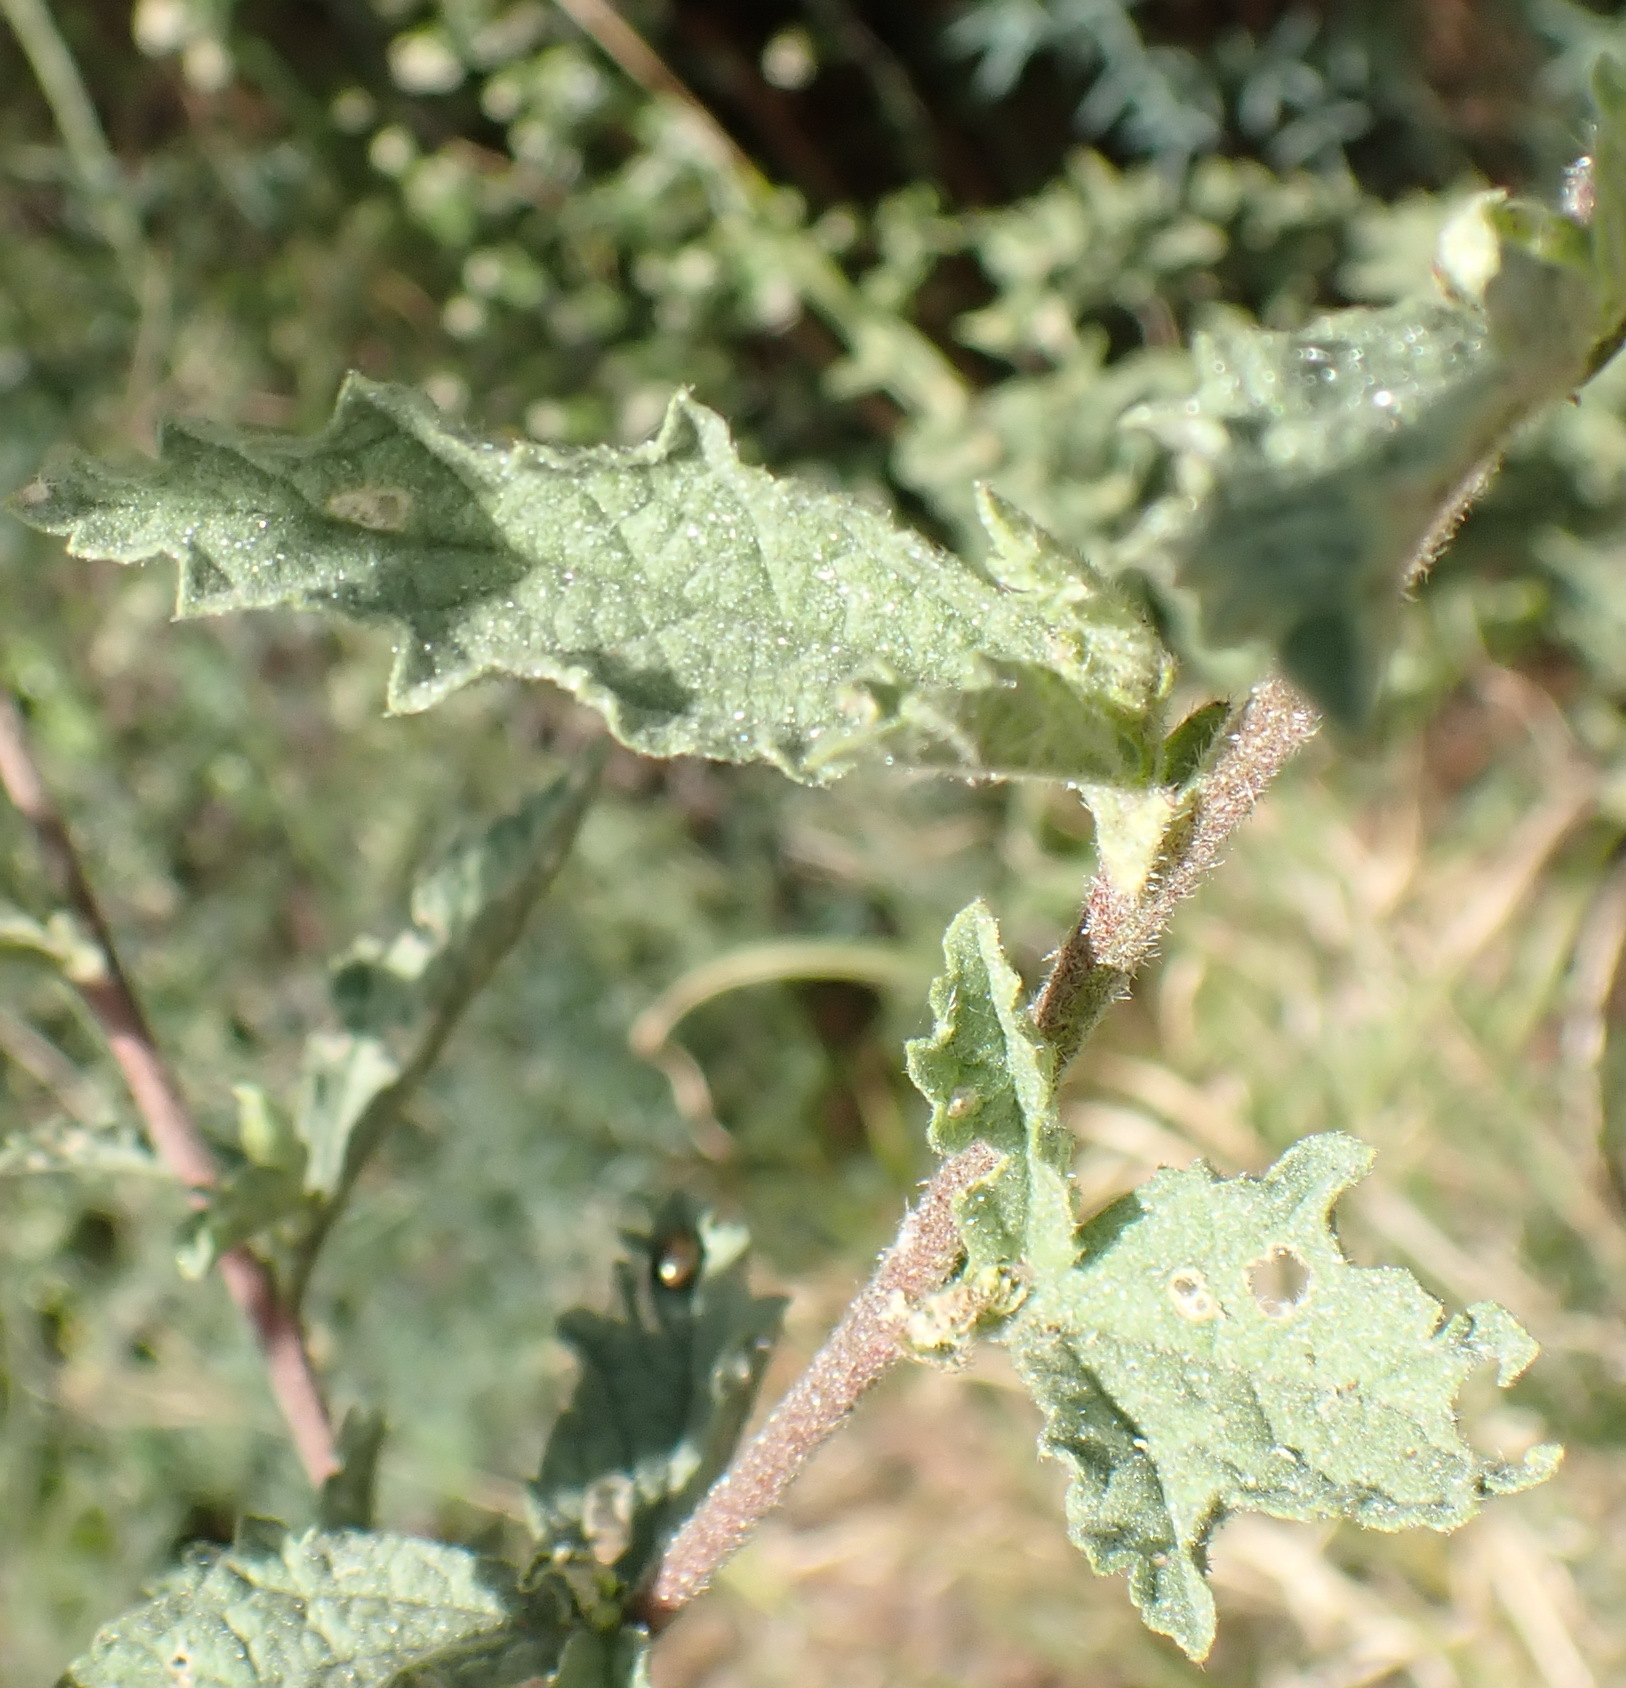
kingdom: Plantae
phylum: Tracheophyta
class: Magnoliopsida
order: Malvales
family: Malvaceae
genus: Anisodontea
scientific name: Anisodontea scabrosa
